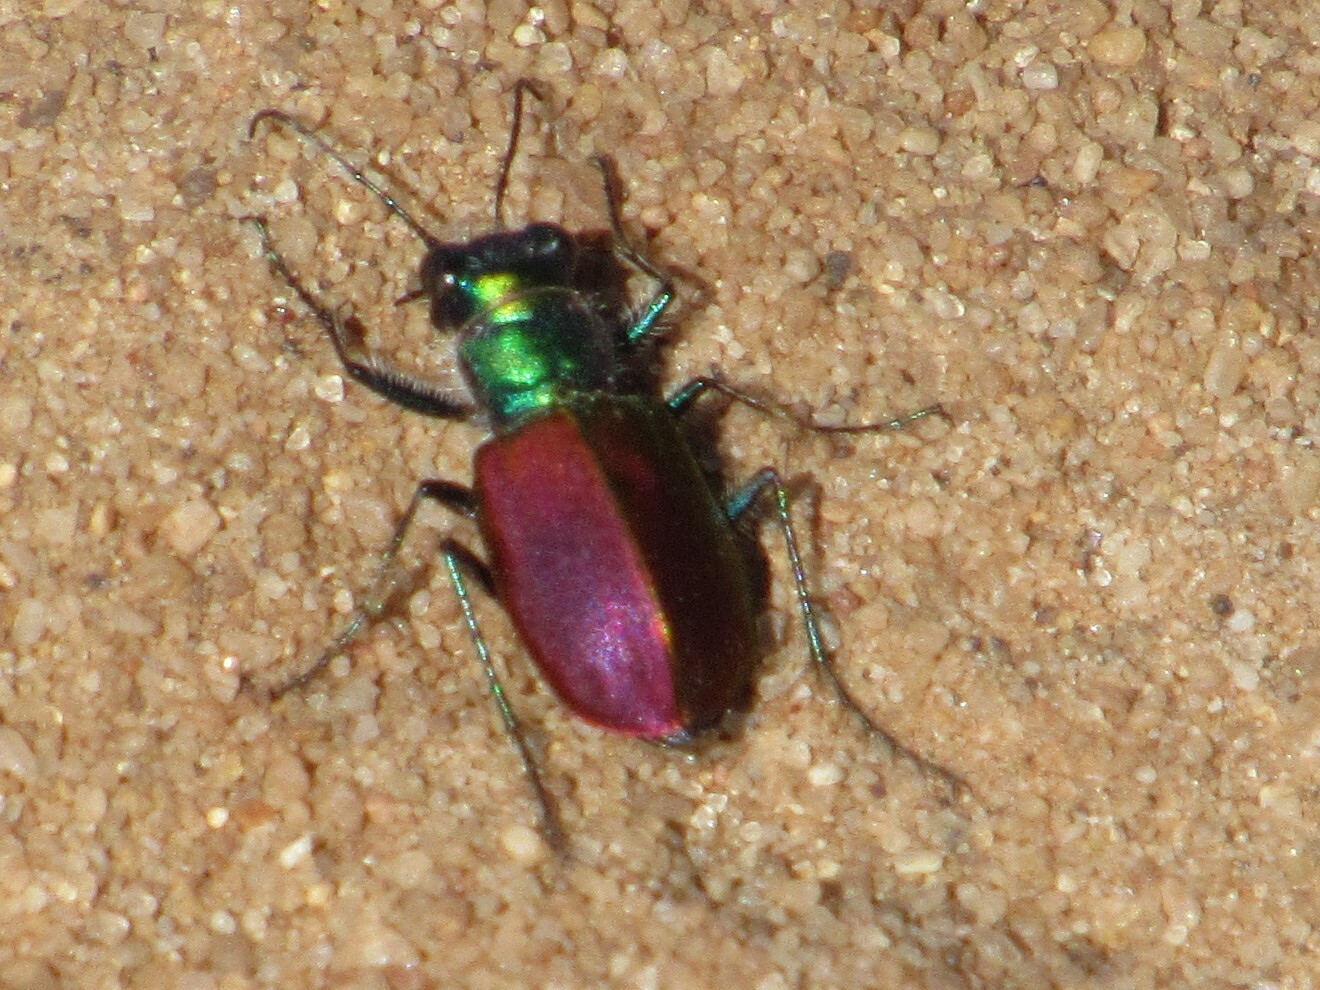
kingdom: Animalia
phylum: Arthropoda
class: Insecta
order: Coleoptera
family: Carabidae
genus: Cicindela
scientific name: Cicindela scutellaris
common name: Festive tiger beetle
